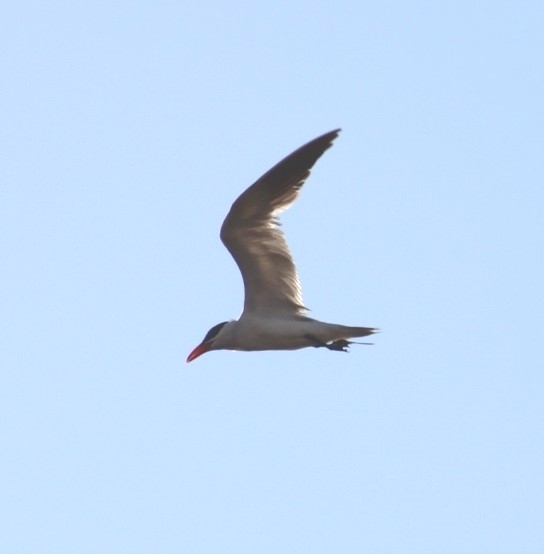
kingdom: Animalia
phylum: Chordata
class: Aves
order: Charadriiformes
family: Laridae
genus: Hydroprogne
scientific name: Hydroprogne caspia
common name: Caspian tern
